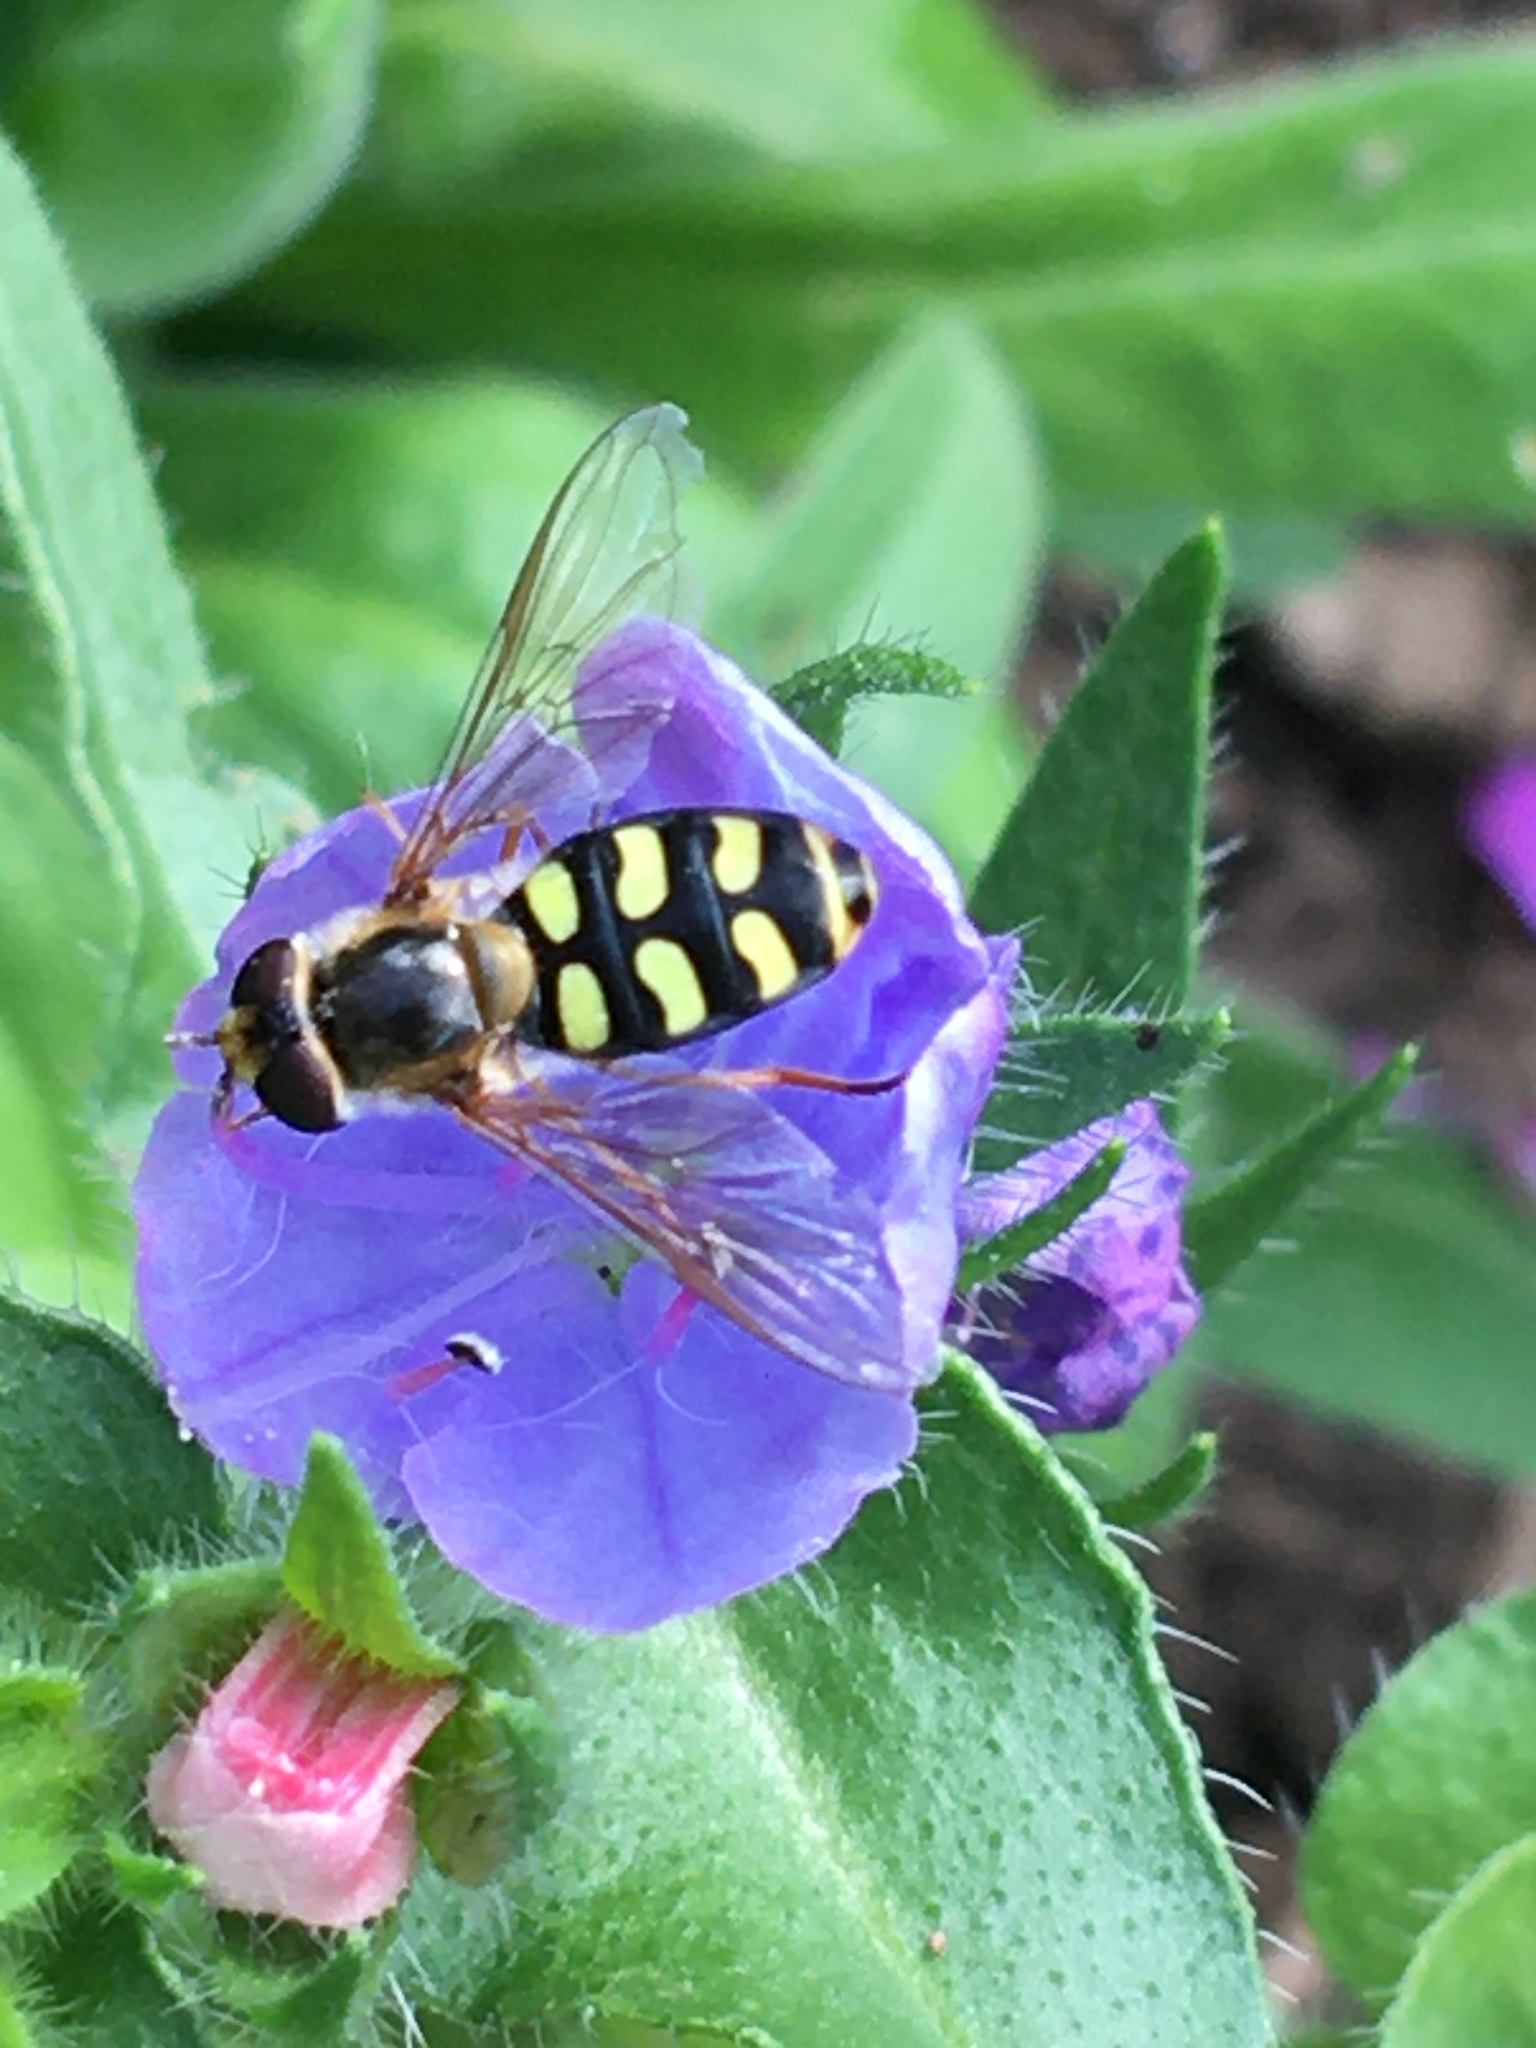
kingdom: Animalia
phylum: Arthropoda
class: Insecta
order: Diptera
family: Syrphidae
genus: Eupeodes
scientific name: Eupeodes luniger
